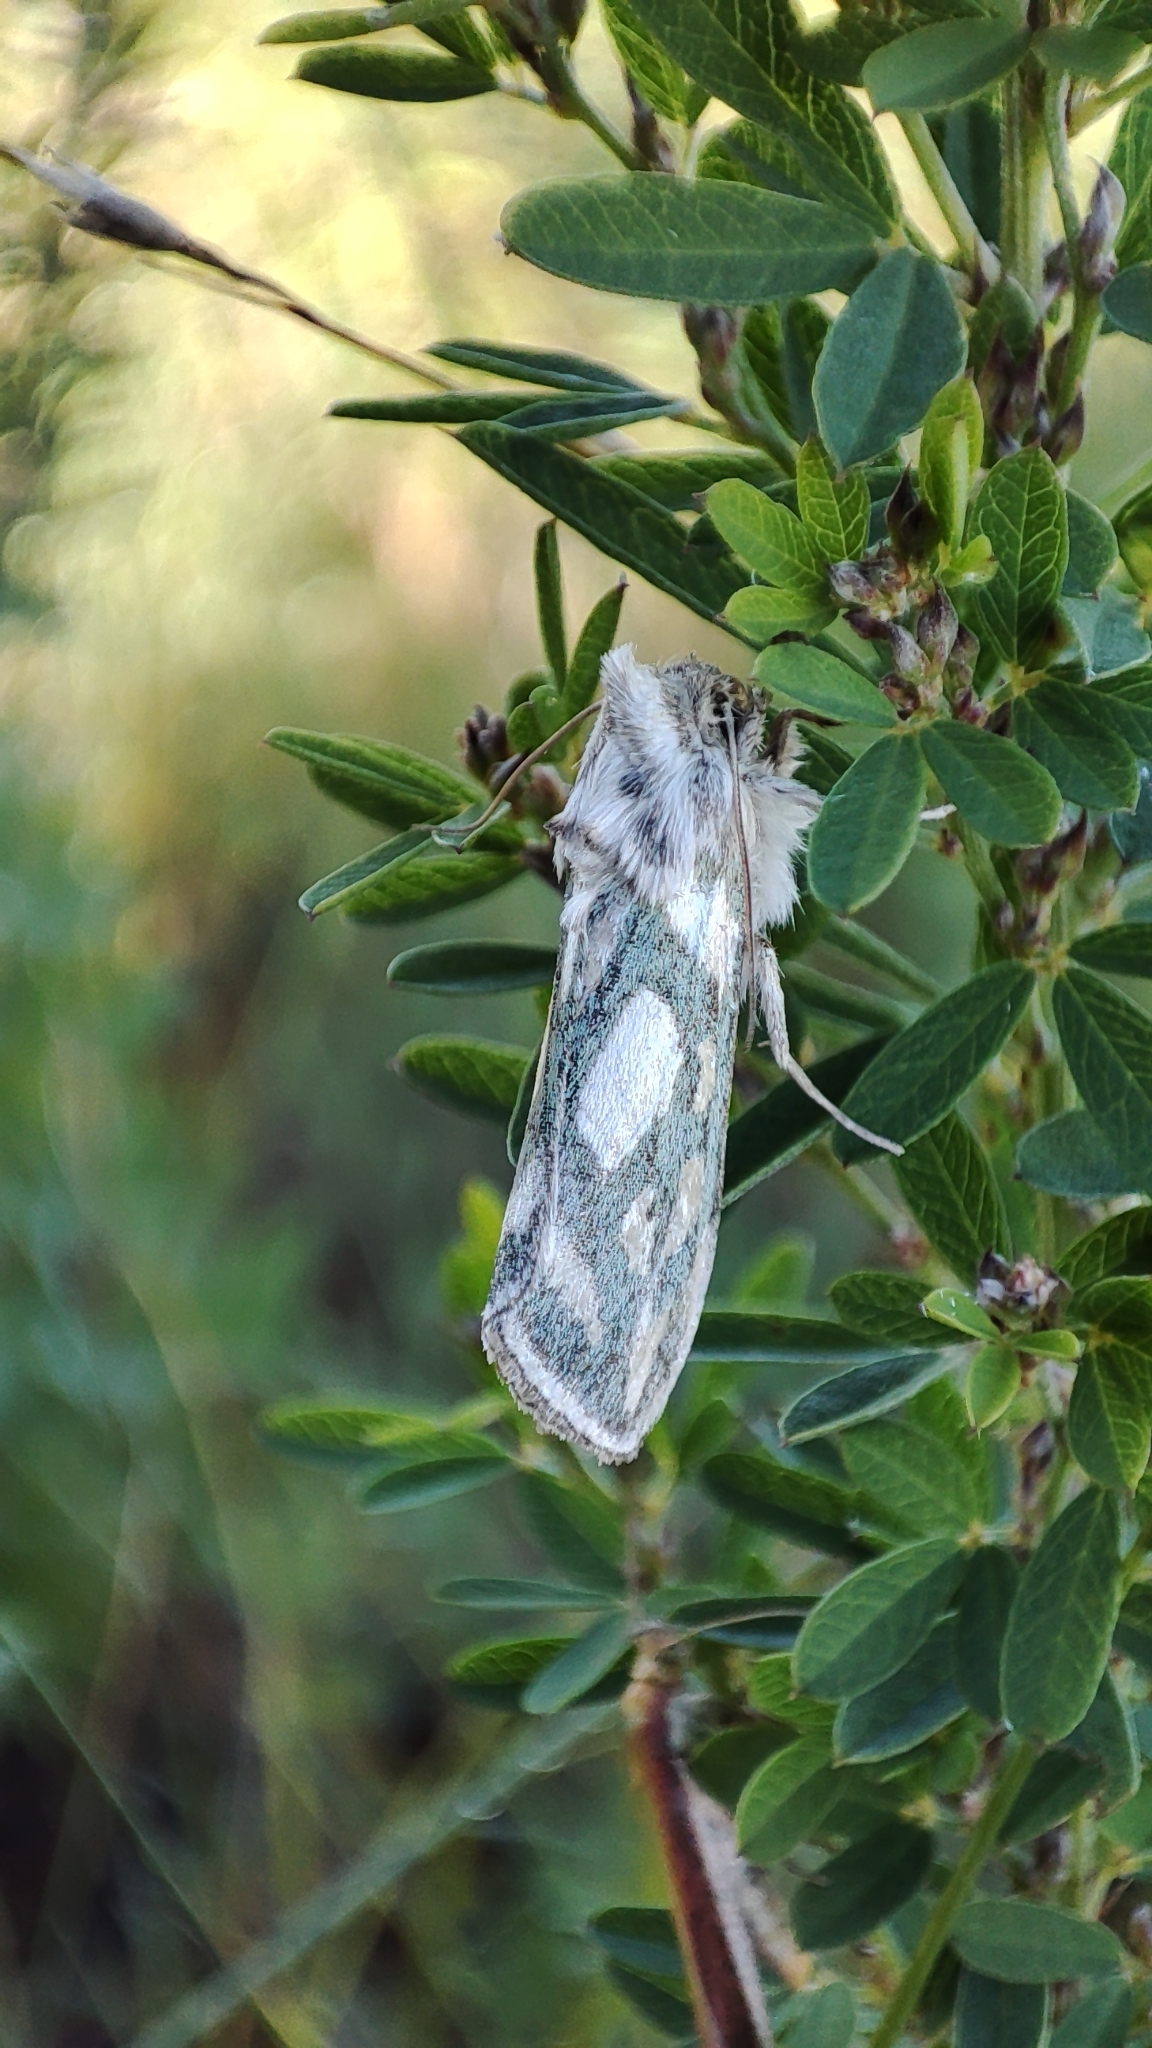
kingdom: Animalia
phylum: Arthropoda
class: Insecta
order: Lepidoptera
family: Noctuidae
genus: Cucullia
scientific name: Cucullia argentea
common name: Green silver-spangled shark
